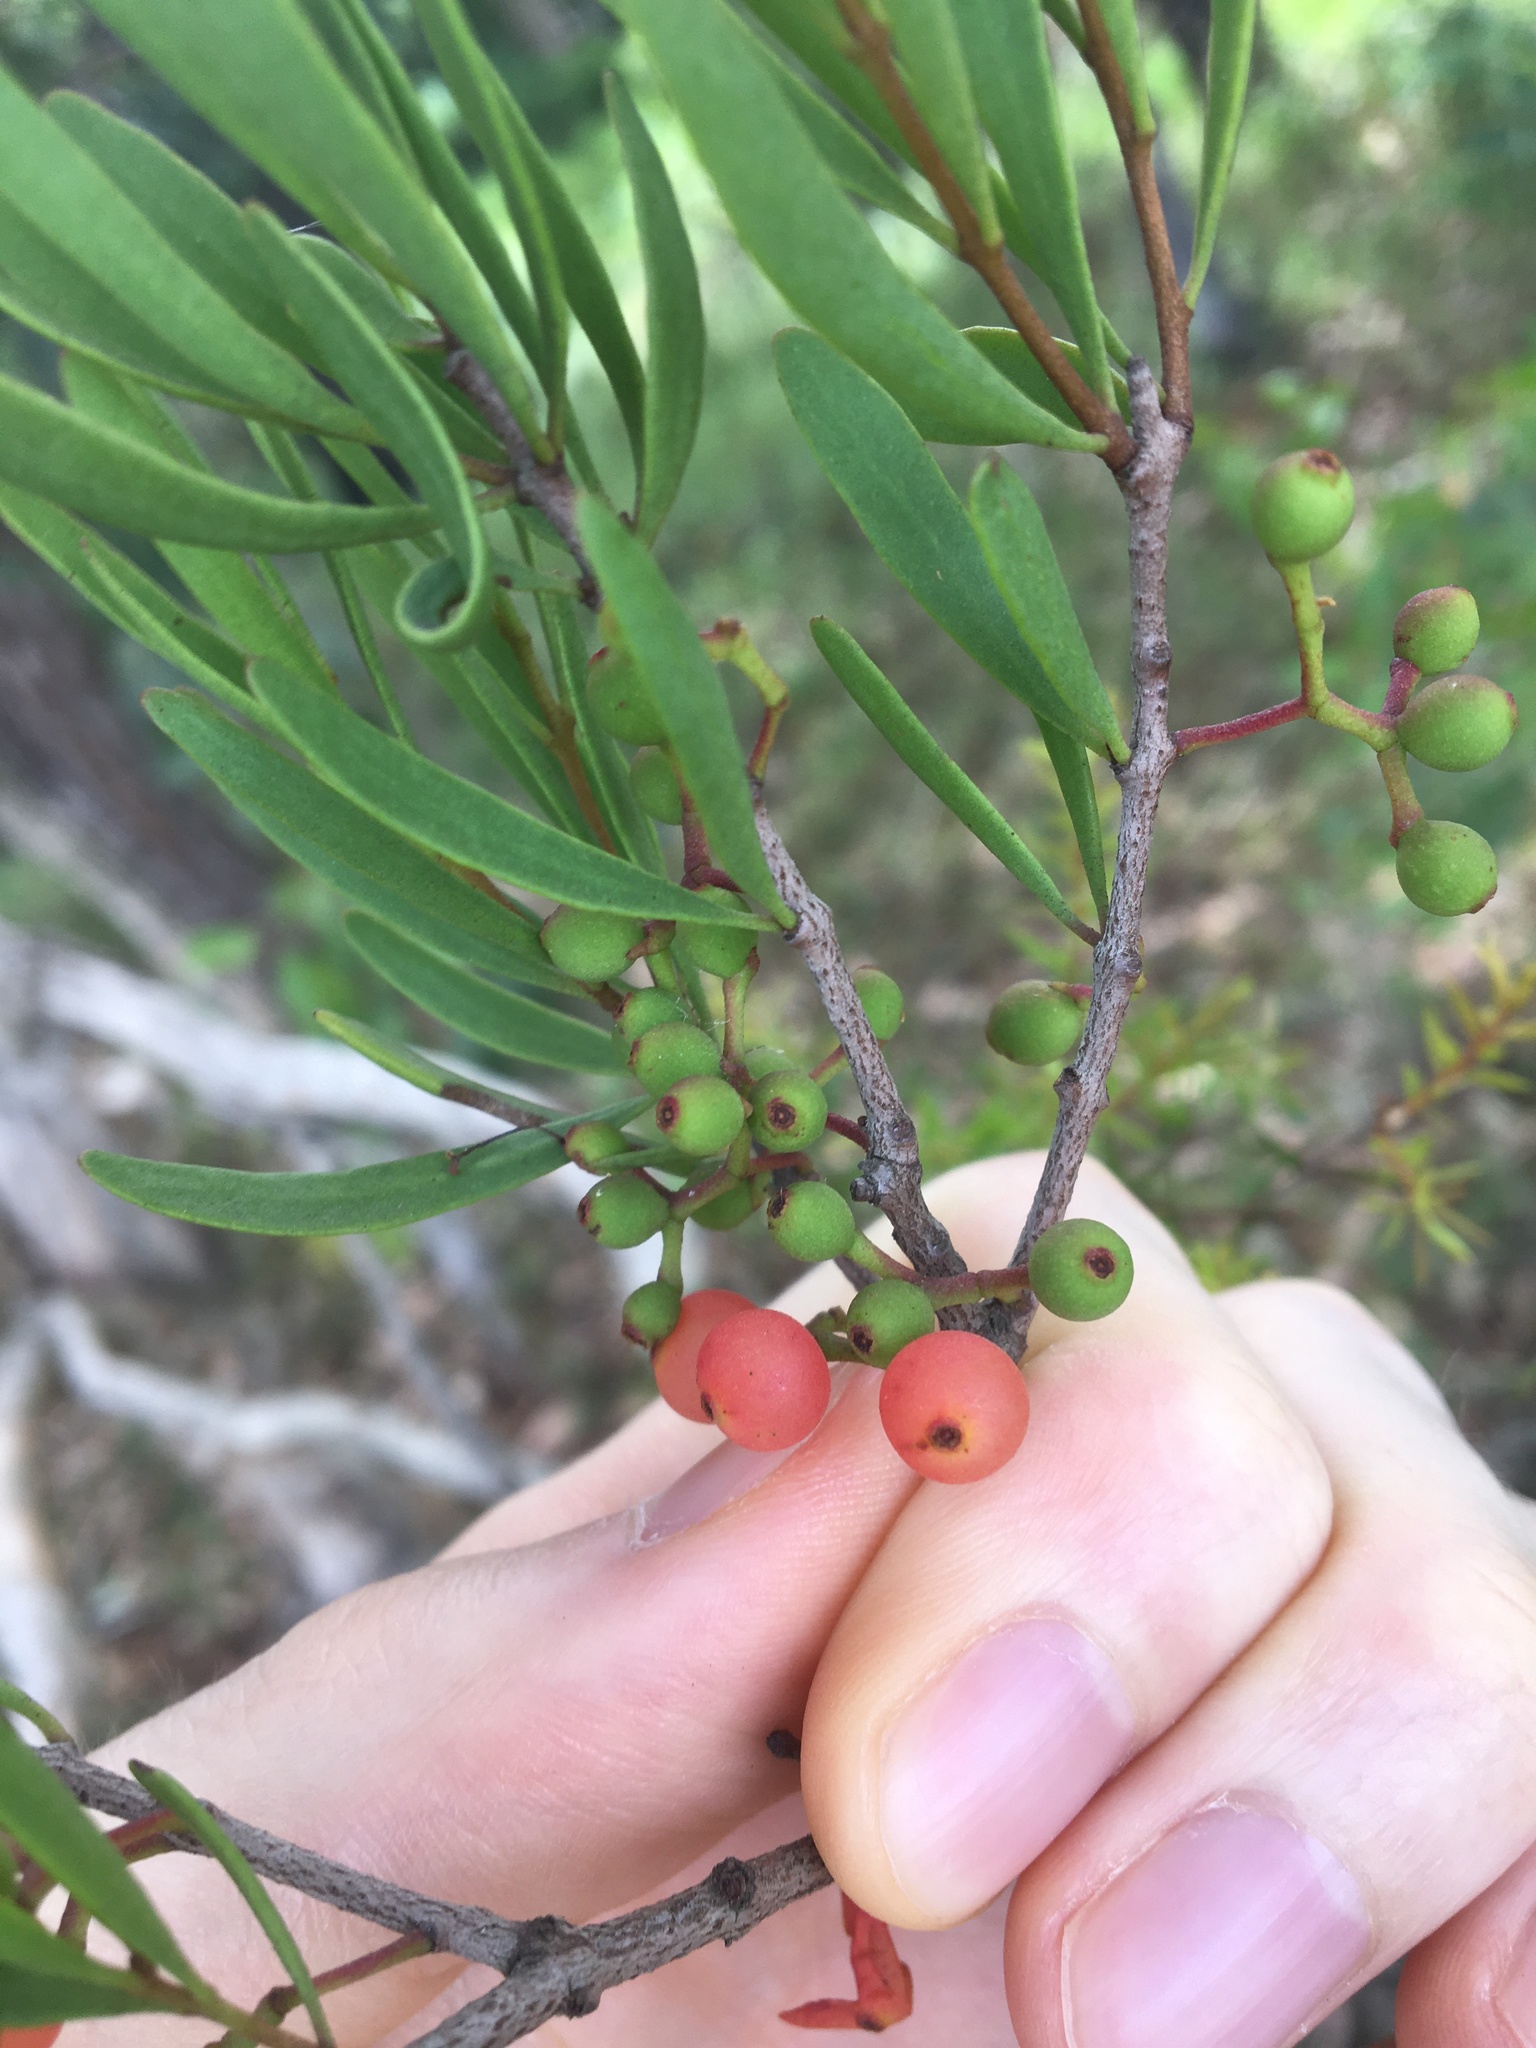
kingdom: Plantae
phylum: Tracheophyta
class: Magnoliopsida
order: Santalales
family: Loranthaceae
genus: Amyema
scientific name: Amyema gaudichaudii
